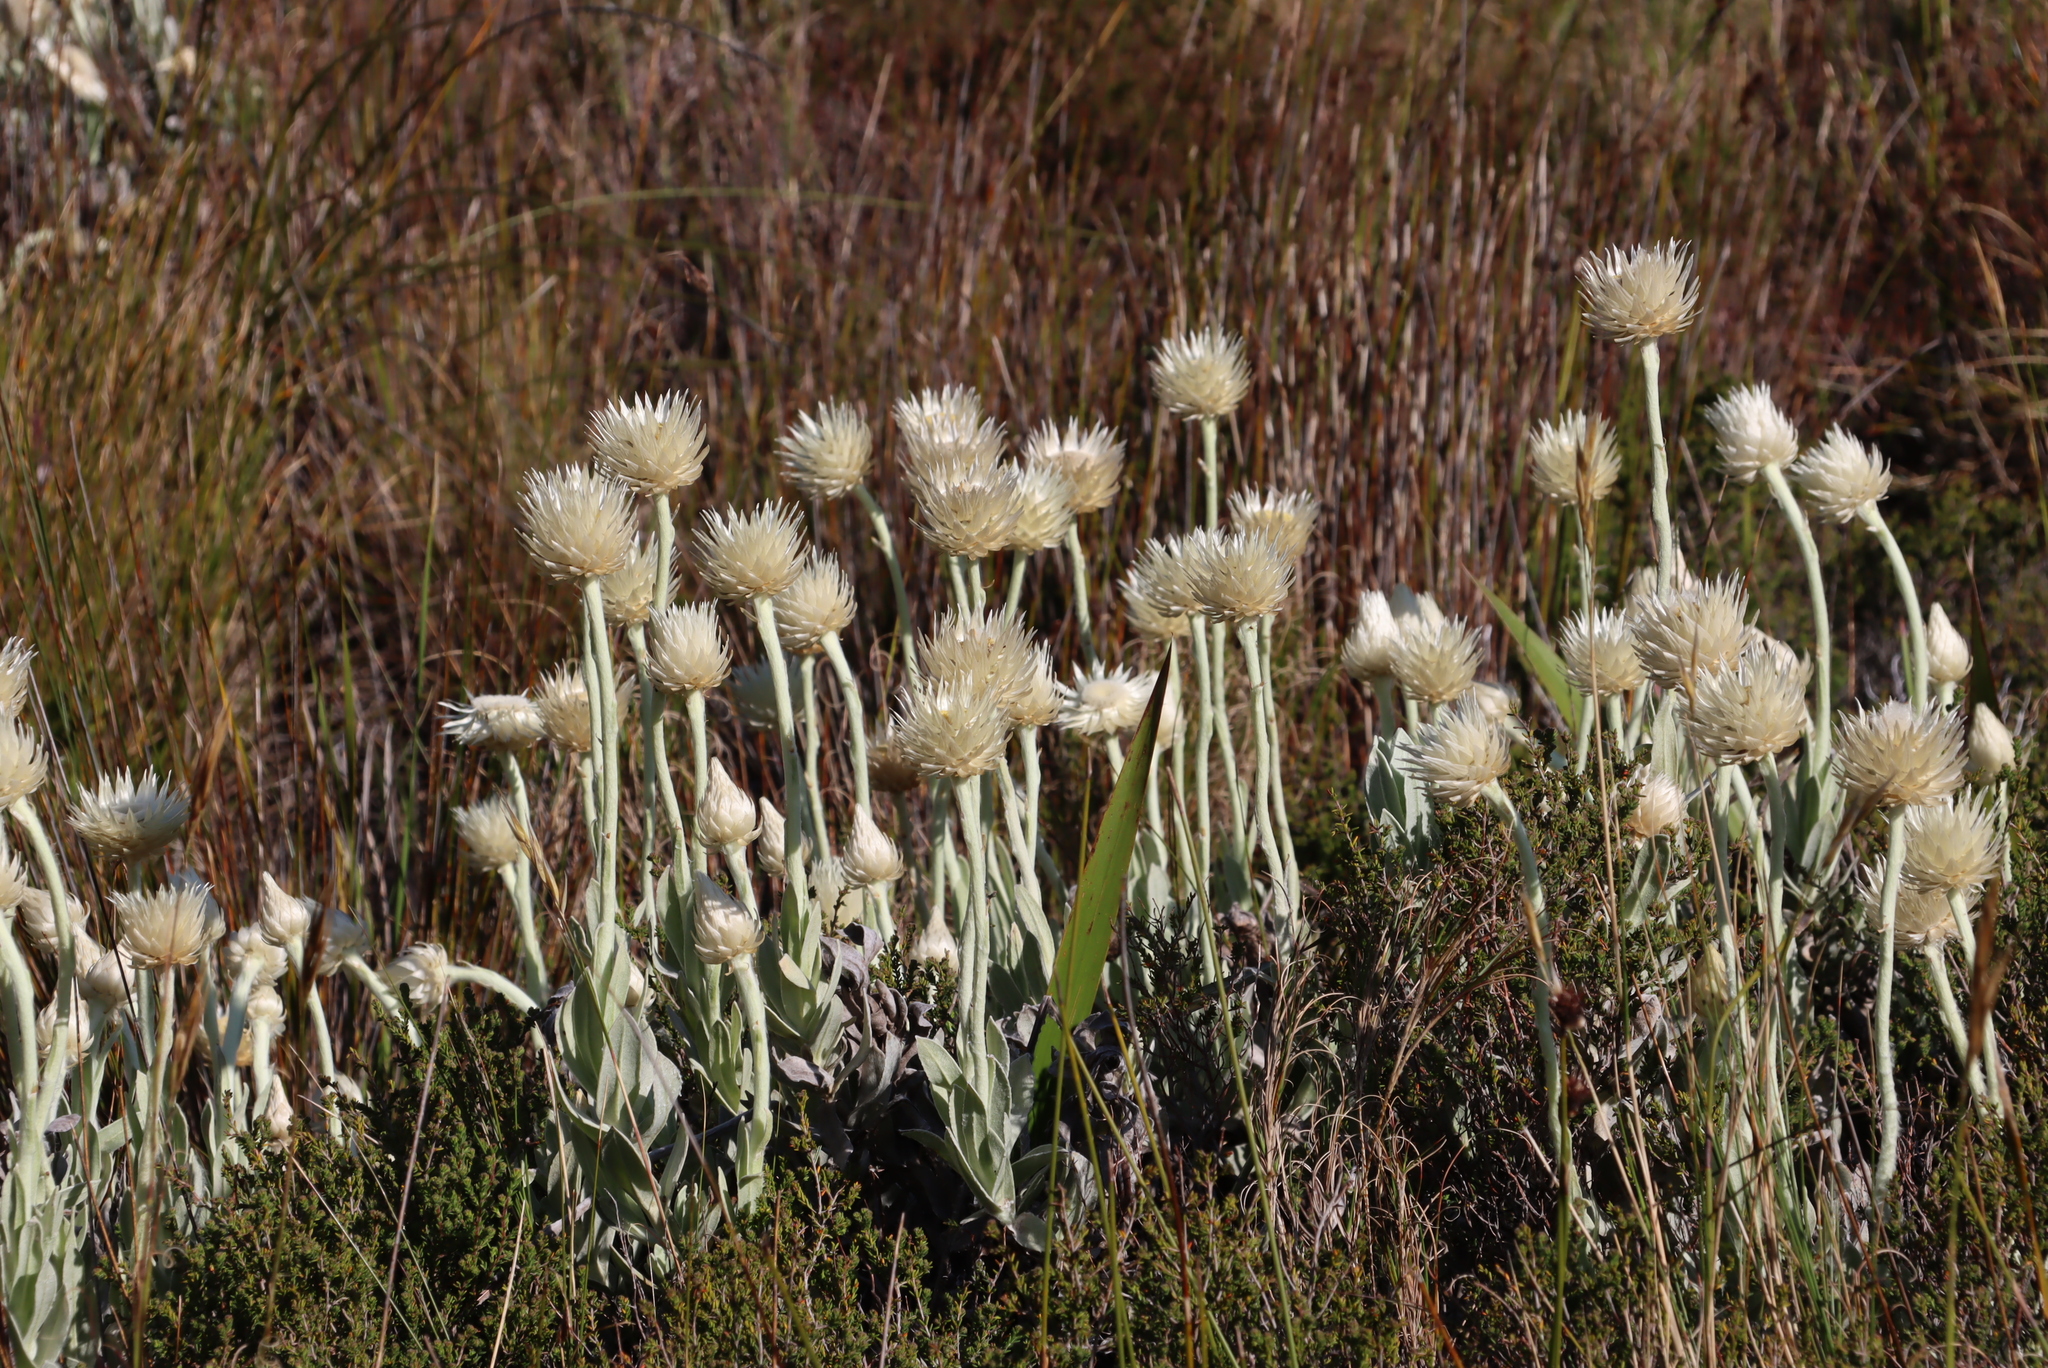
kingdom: Plantae
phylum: Tracheophyta
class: Magnoliopsida
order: Asterales
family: Asteraceae
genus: Syncarpha
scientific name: Syncarpha speciosissima
